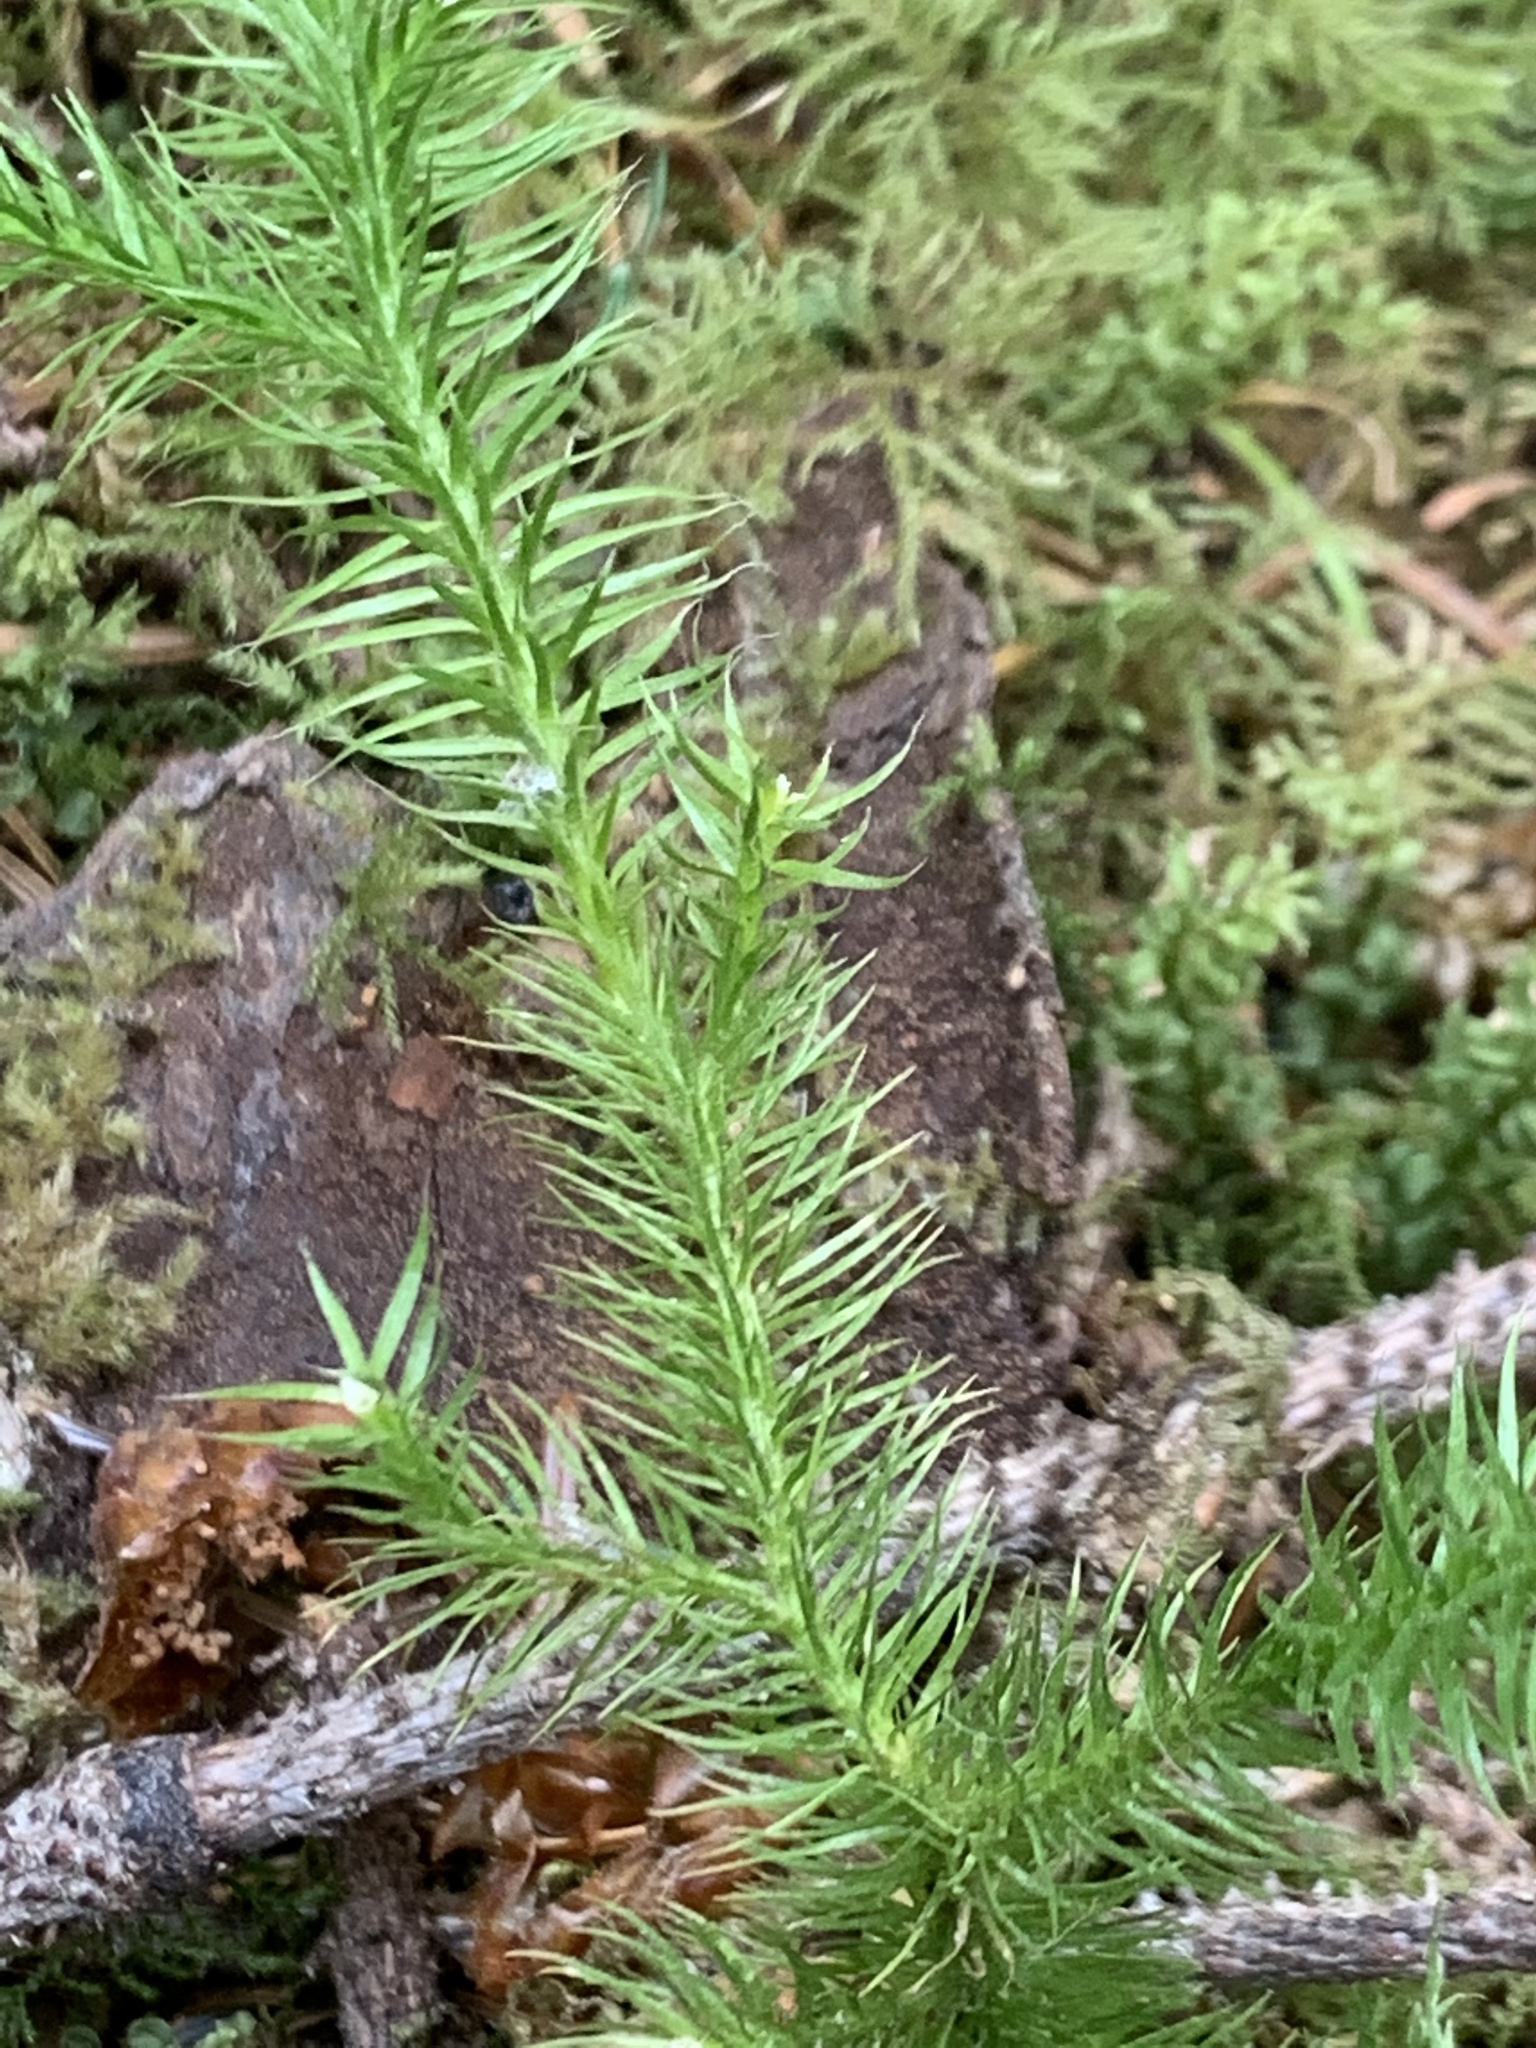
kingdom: Plantae
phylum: Tracheophyta
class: Lycopodiopsida
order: Lycopodiales
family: Lycopodiaceae
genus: Lycopodium
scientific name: Lycopodium clavatum
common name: Stag's-horn clubmoss
